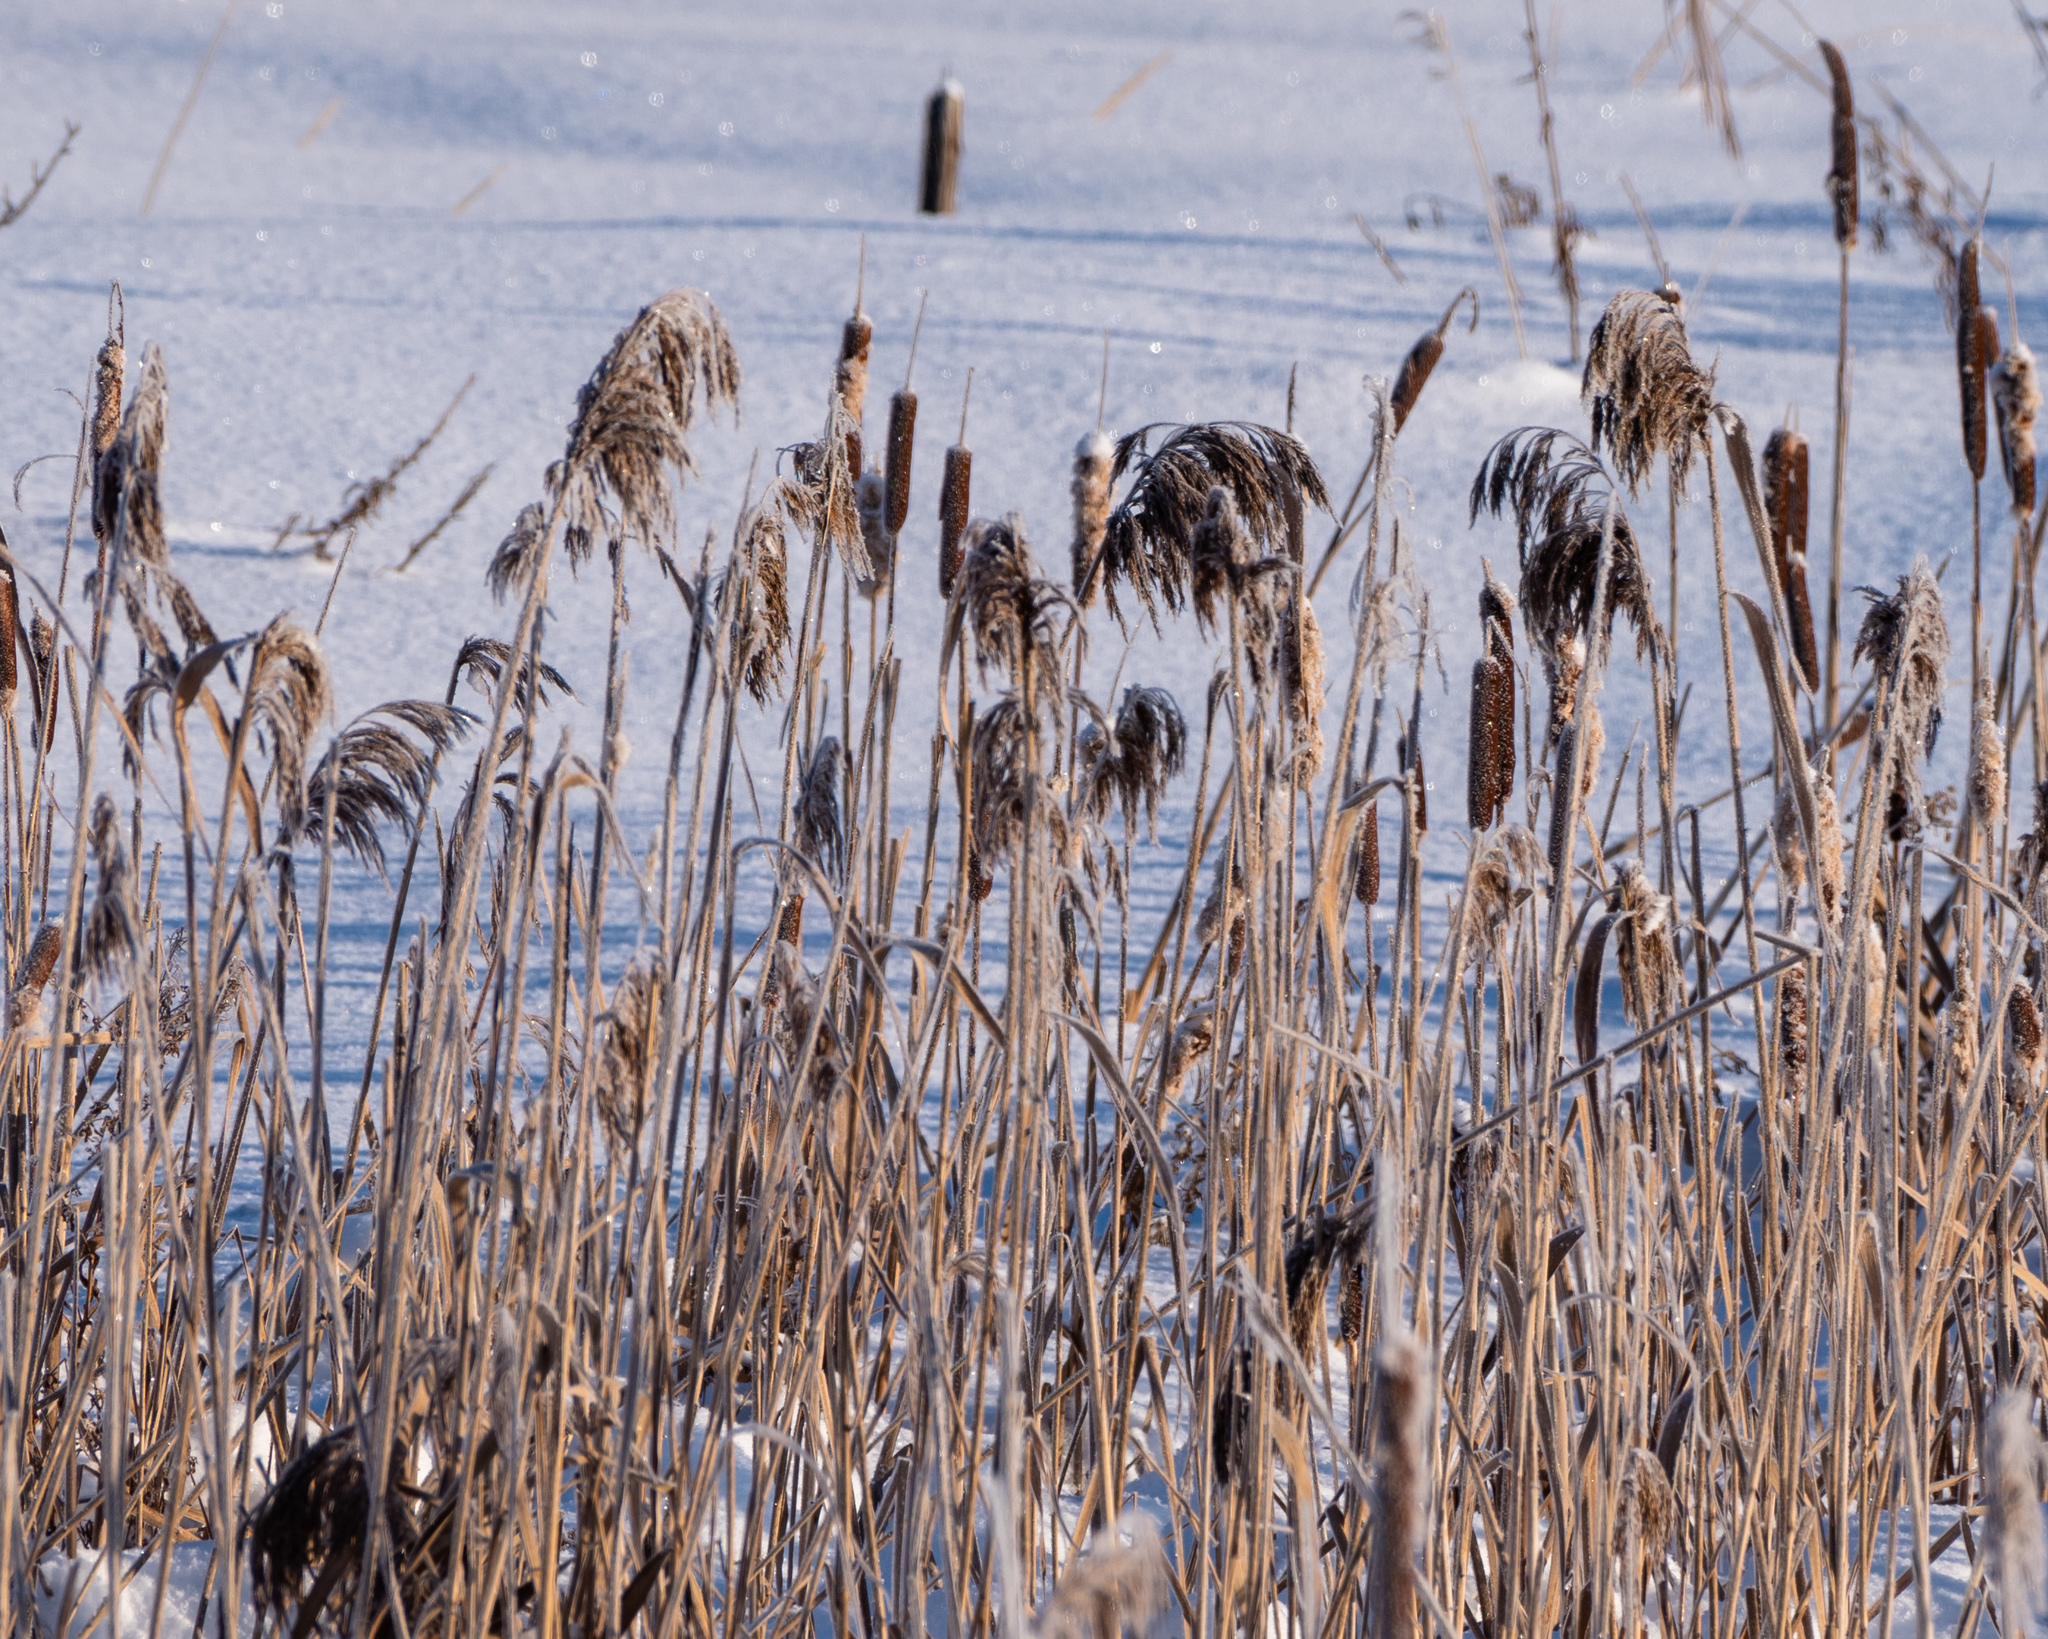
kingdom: Plantae
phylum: Tracheophyta
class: Liliopsida
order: Poales
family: Poaceae
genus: Phragmites
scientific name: Phragmites australis
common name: Common reed
